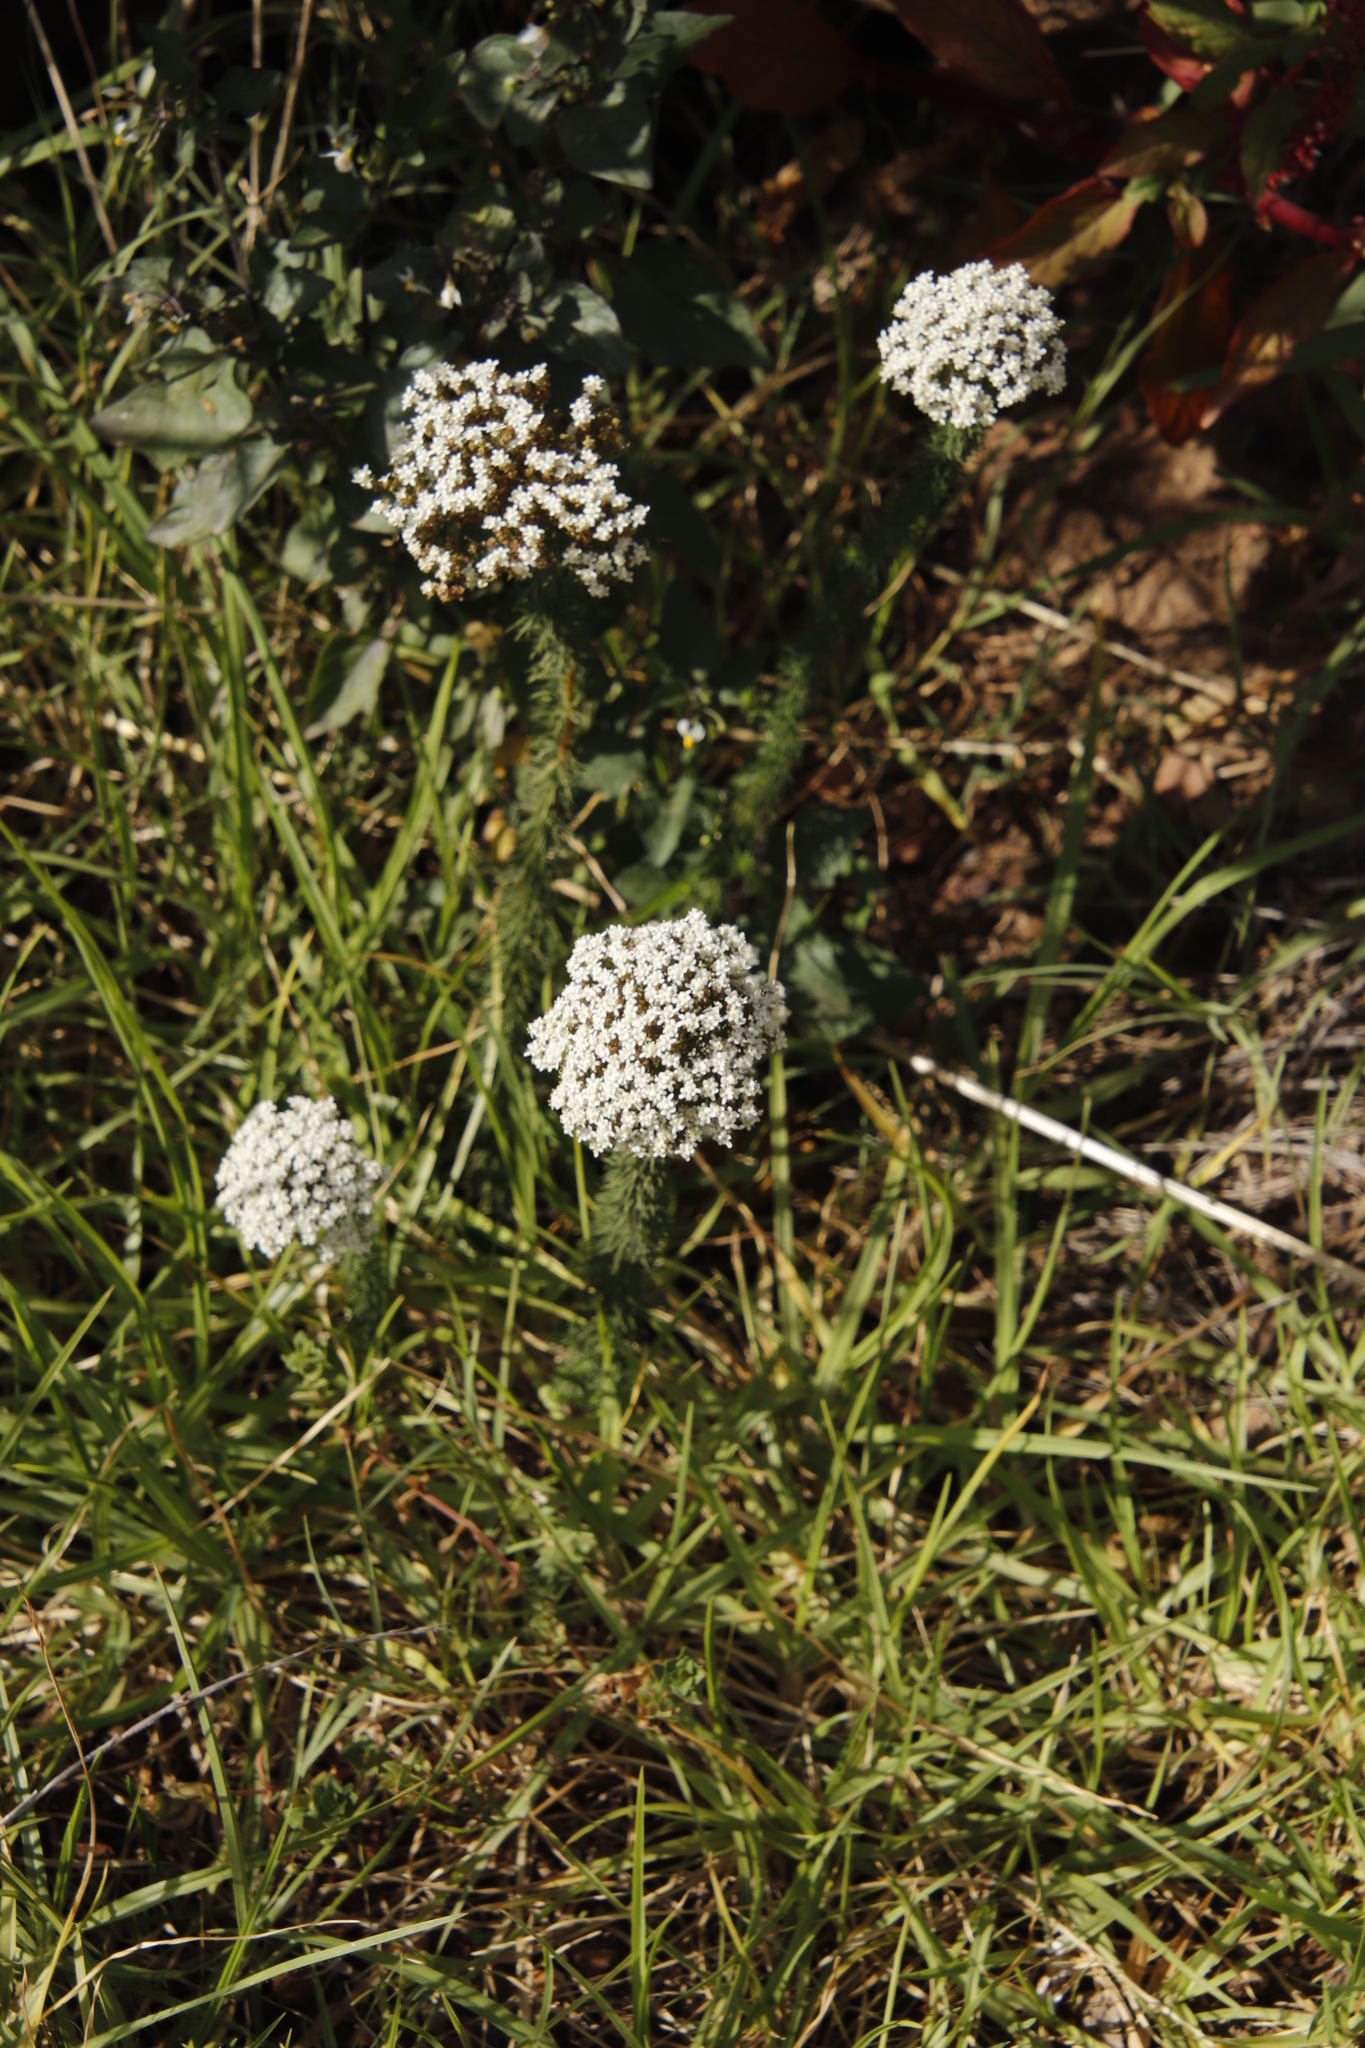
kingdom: Plantae
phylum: Tracheophyta
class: Magnoliopsida
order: Lamiales
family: Scrophulariaceae
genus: Selago
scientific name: Selago corymbosa
